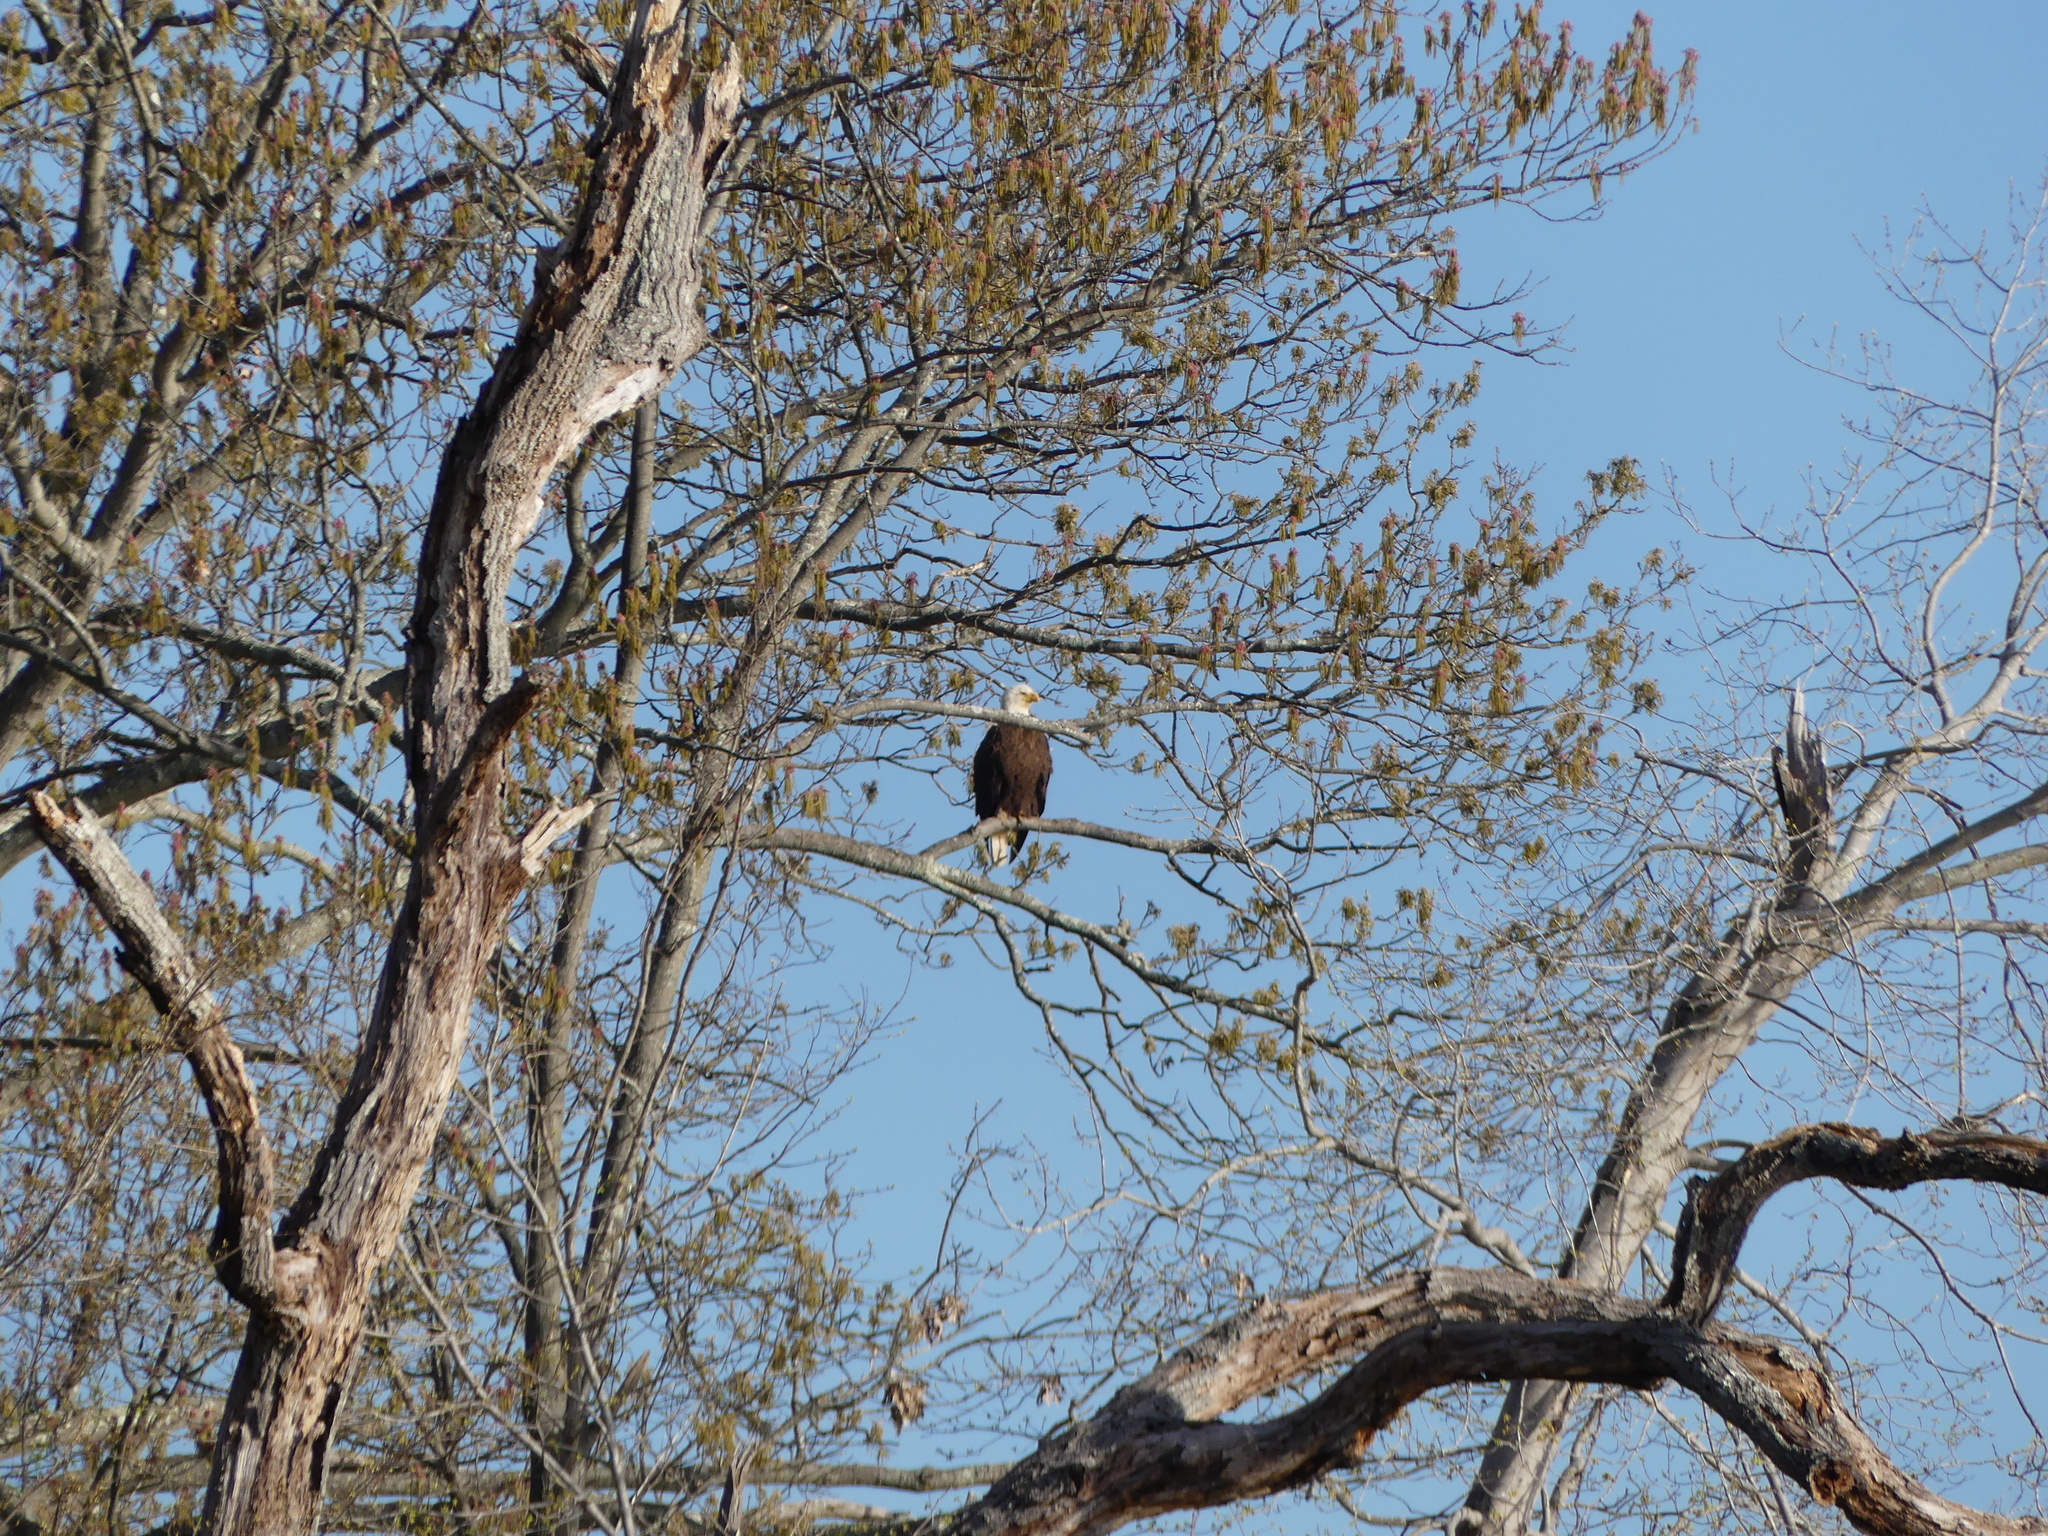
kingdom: Animalia
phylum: Chordata
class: Aves
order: Accipitriformes
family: Accipitridae
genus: Haliaeetus
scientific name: Haliaeetus leucocephalus
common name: Bald eagle
